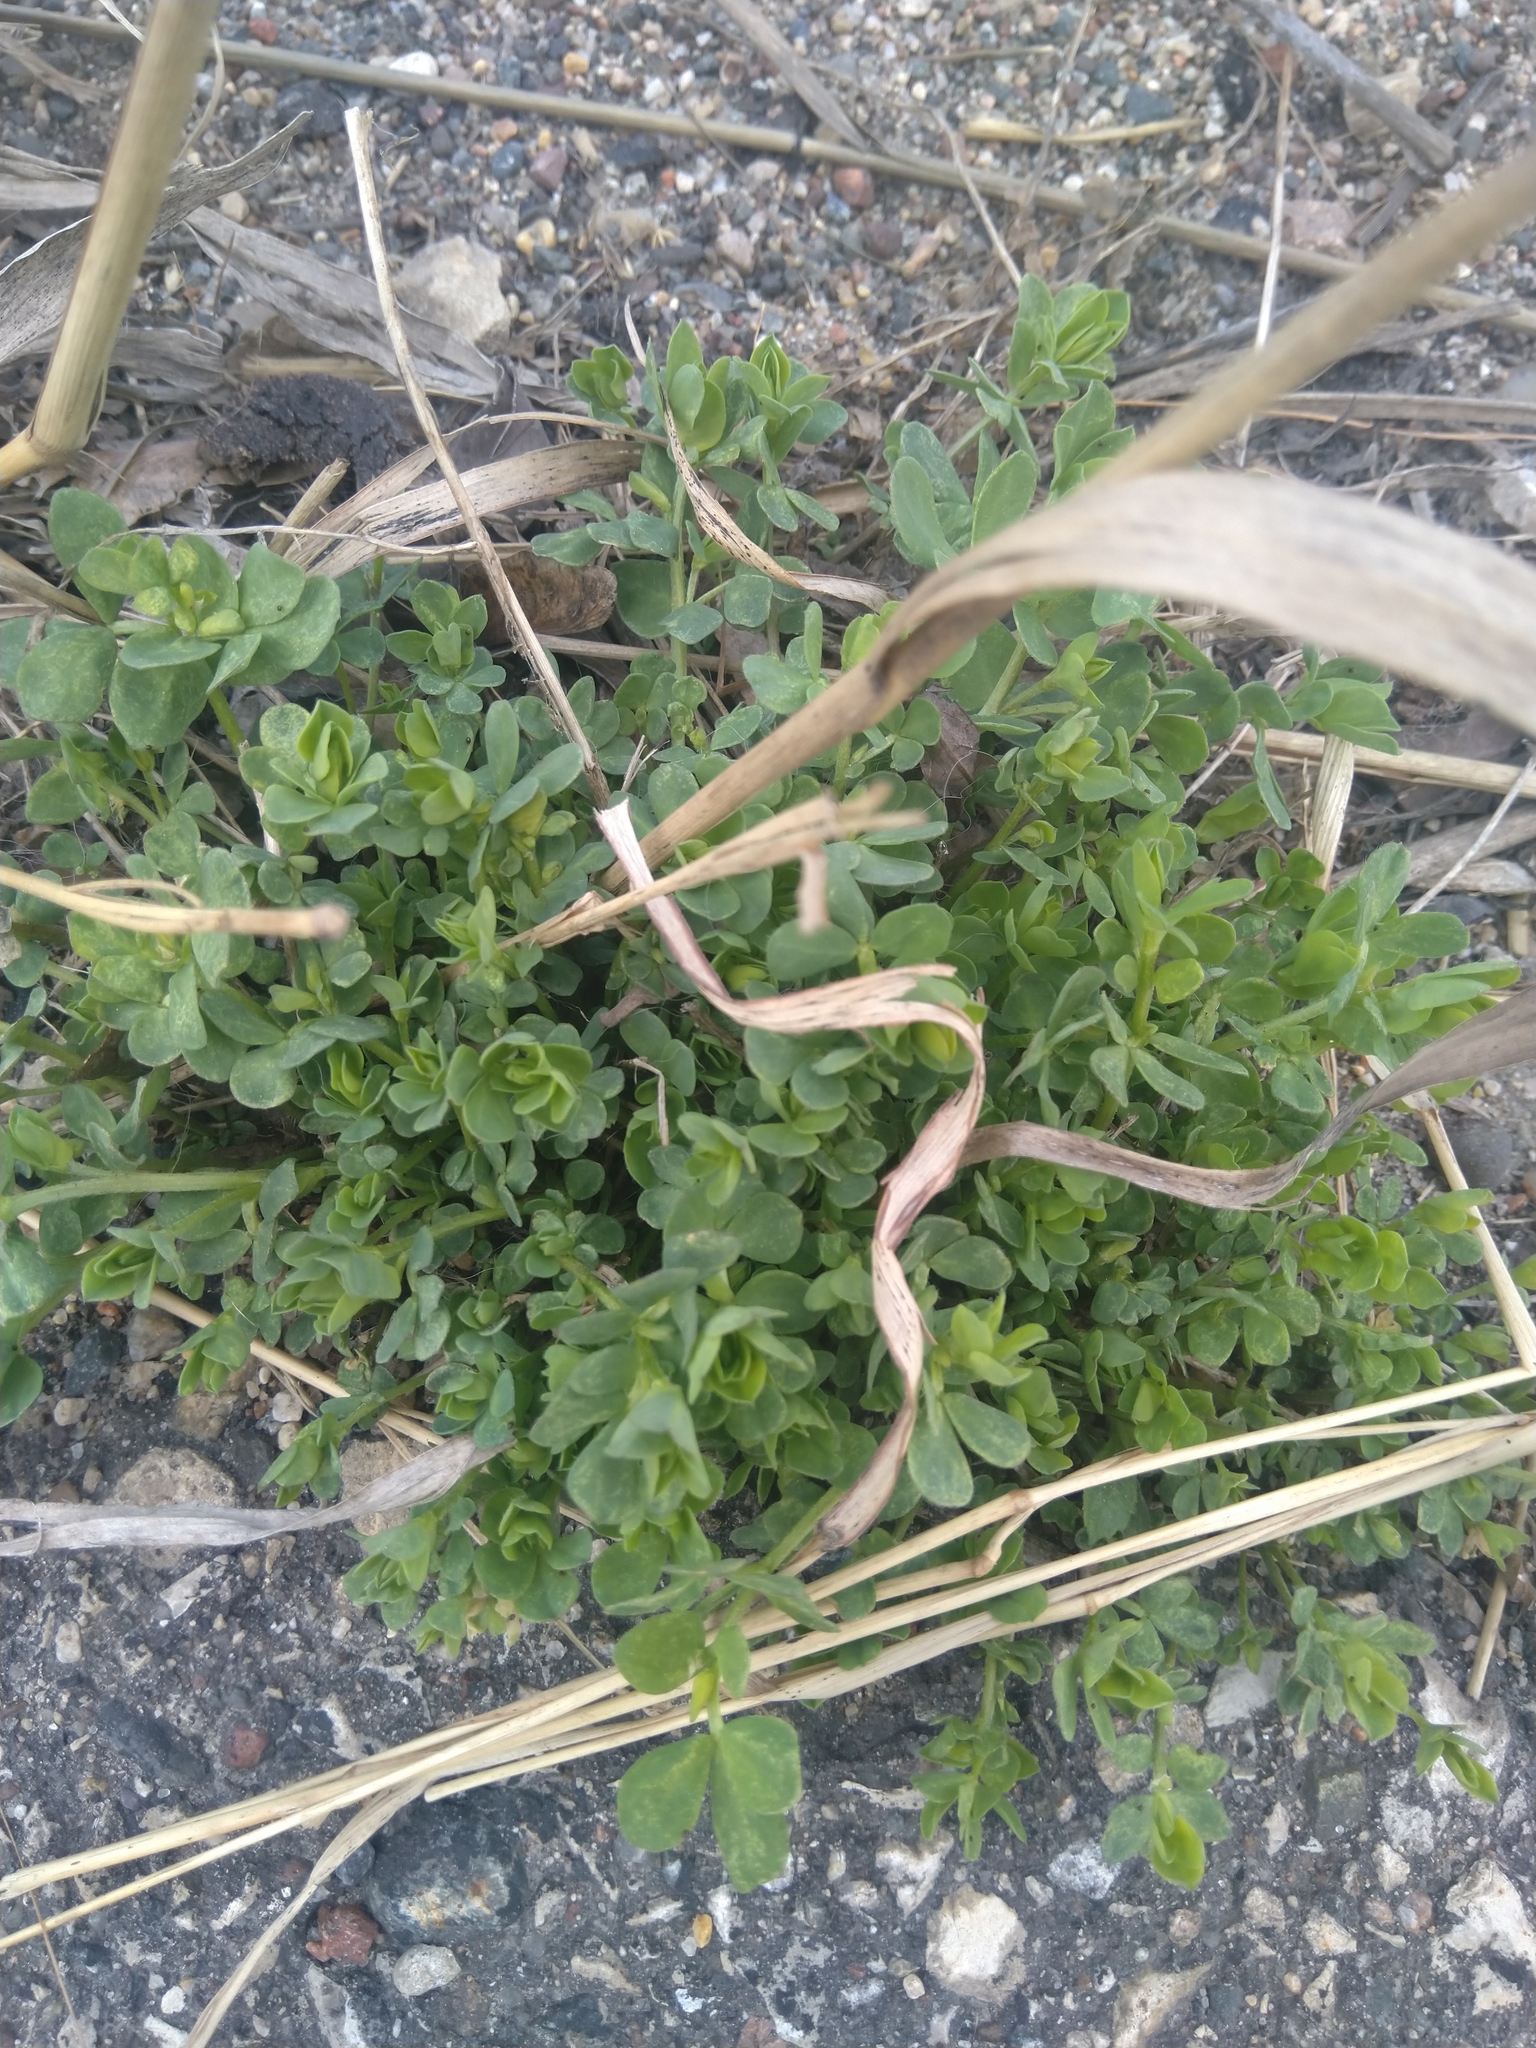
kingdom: Plantae
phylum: Tracheophyta
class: Magnoliopsida
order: Fabales
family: Fabaceae
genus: Lotus
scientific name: Lotus corniculatus
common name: Common bird's-foot-trefoil
